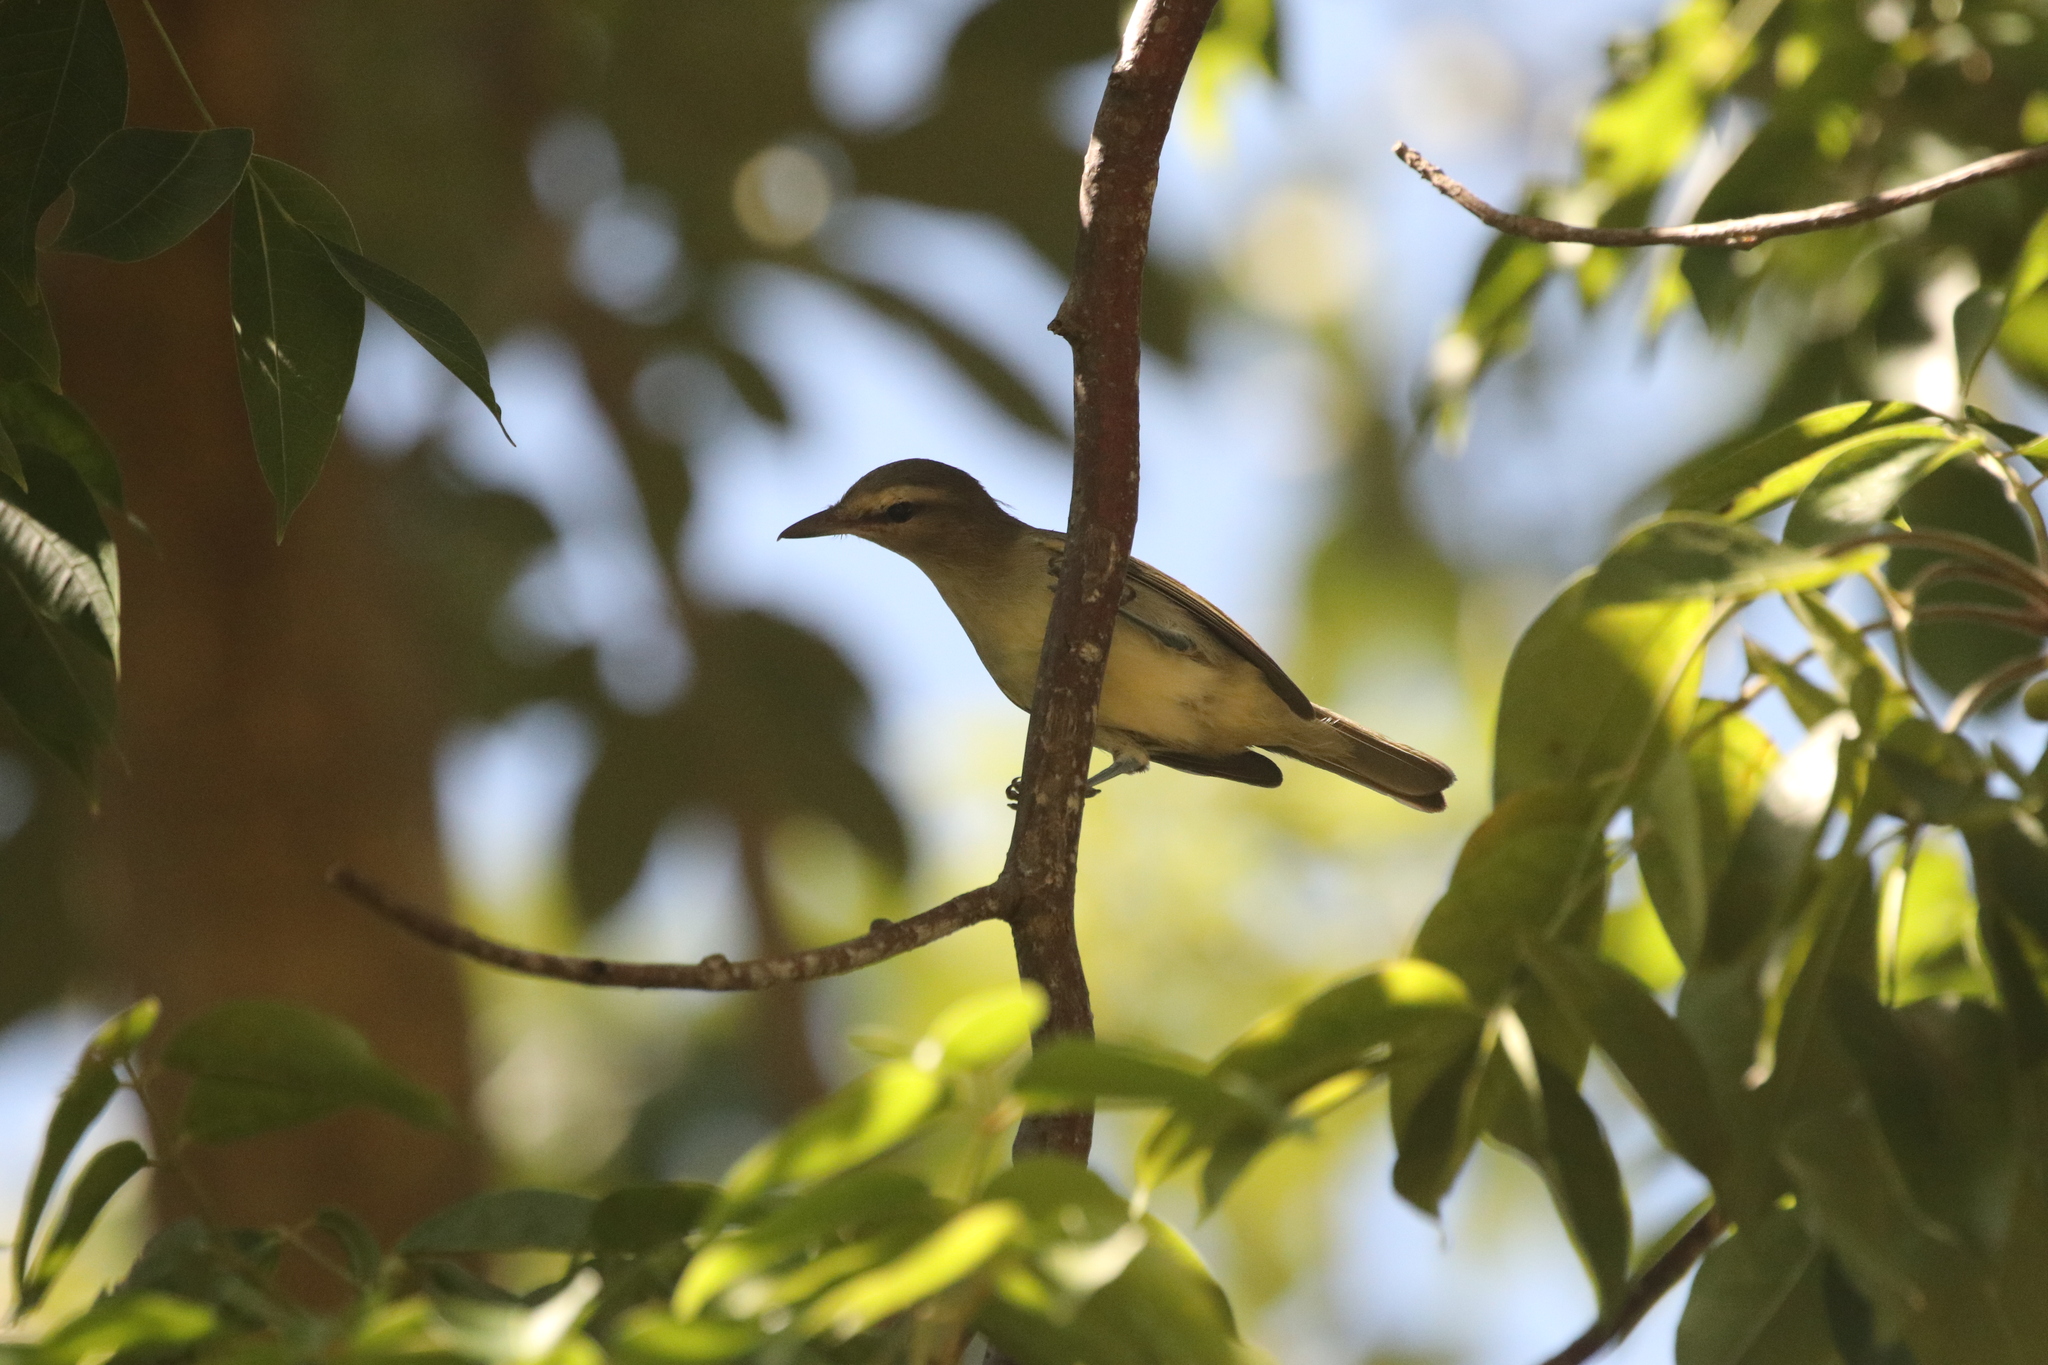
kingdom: Animalia
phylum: Chordata
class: Aves
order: Passeriformes
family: Vireonidae
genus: Vireo
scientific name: Vireo magister
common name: Yucatan vireo
